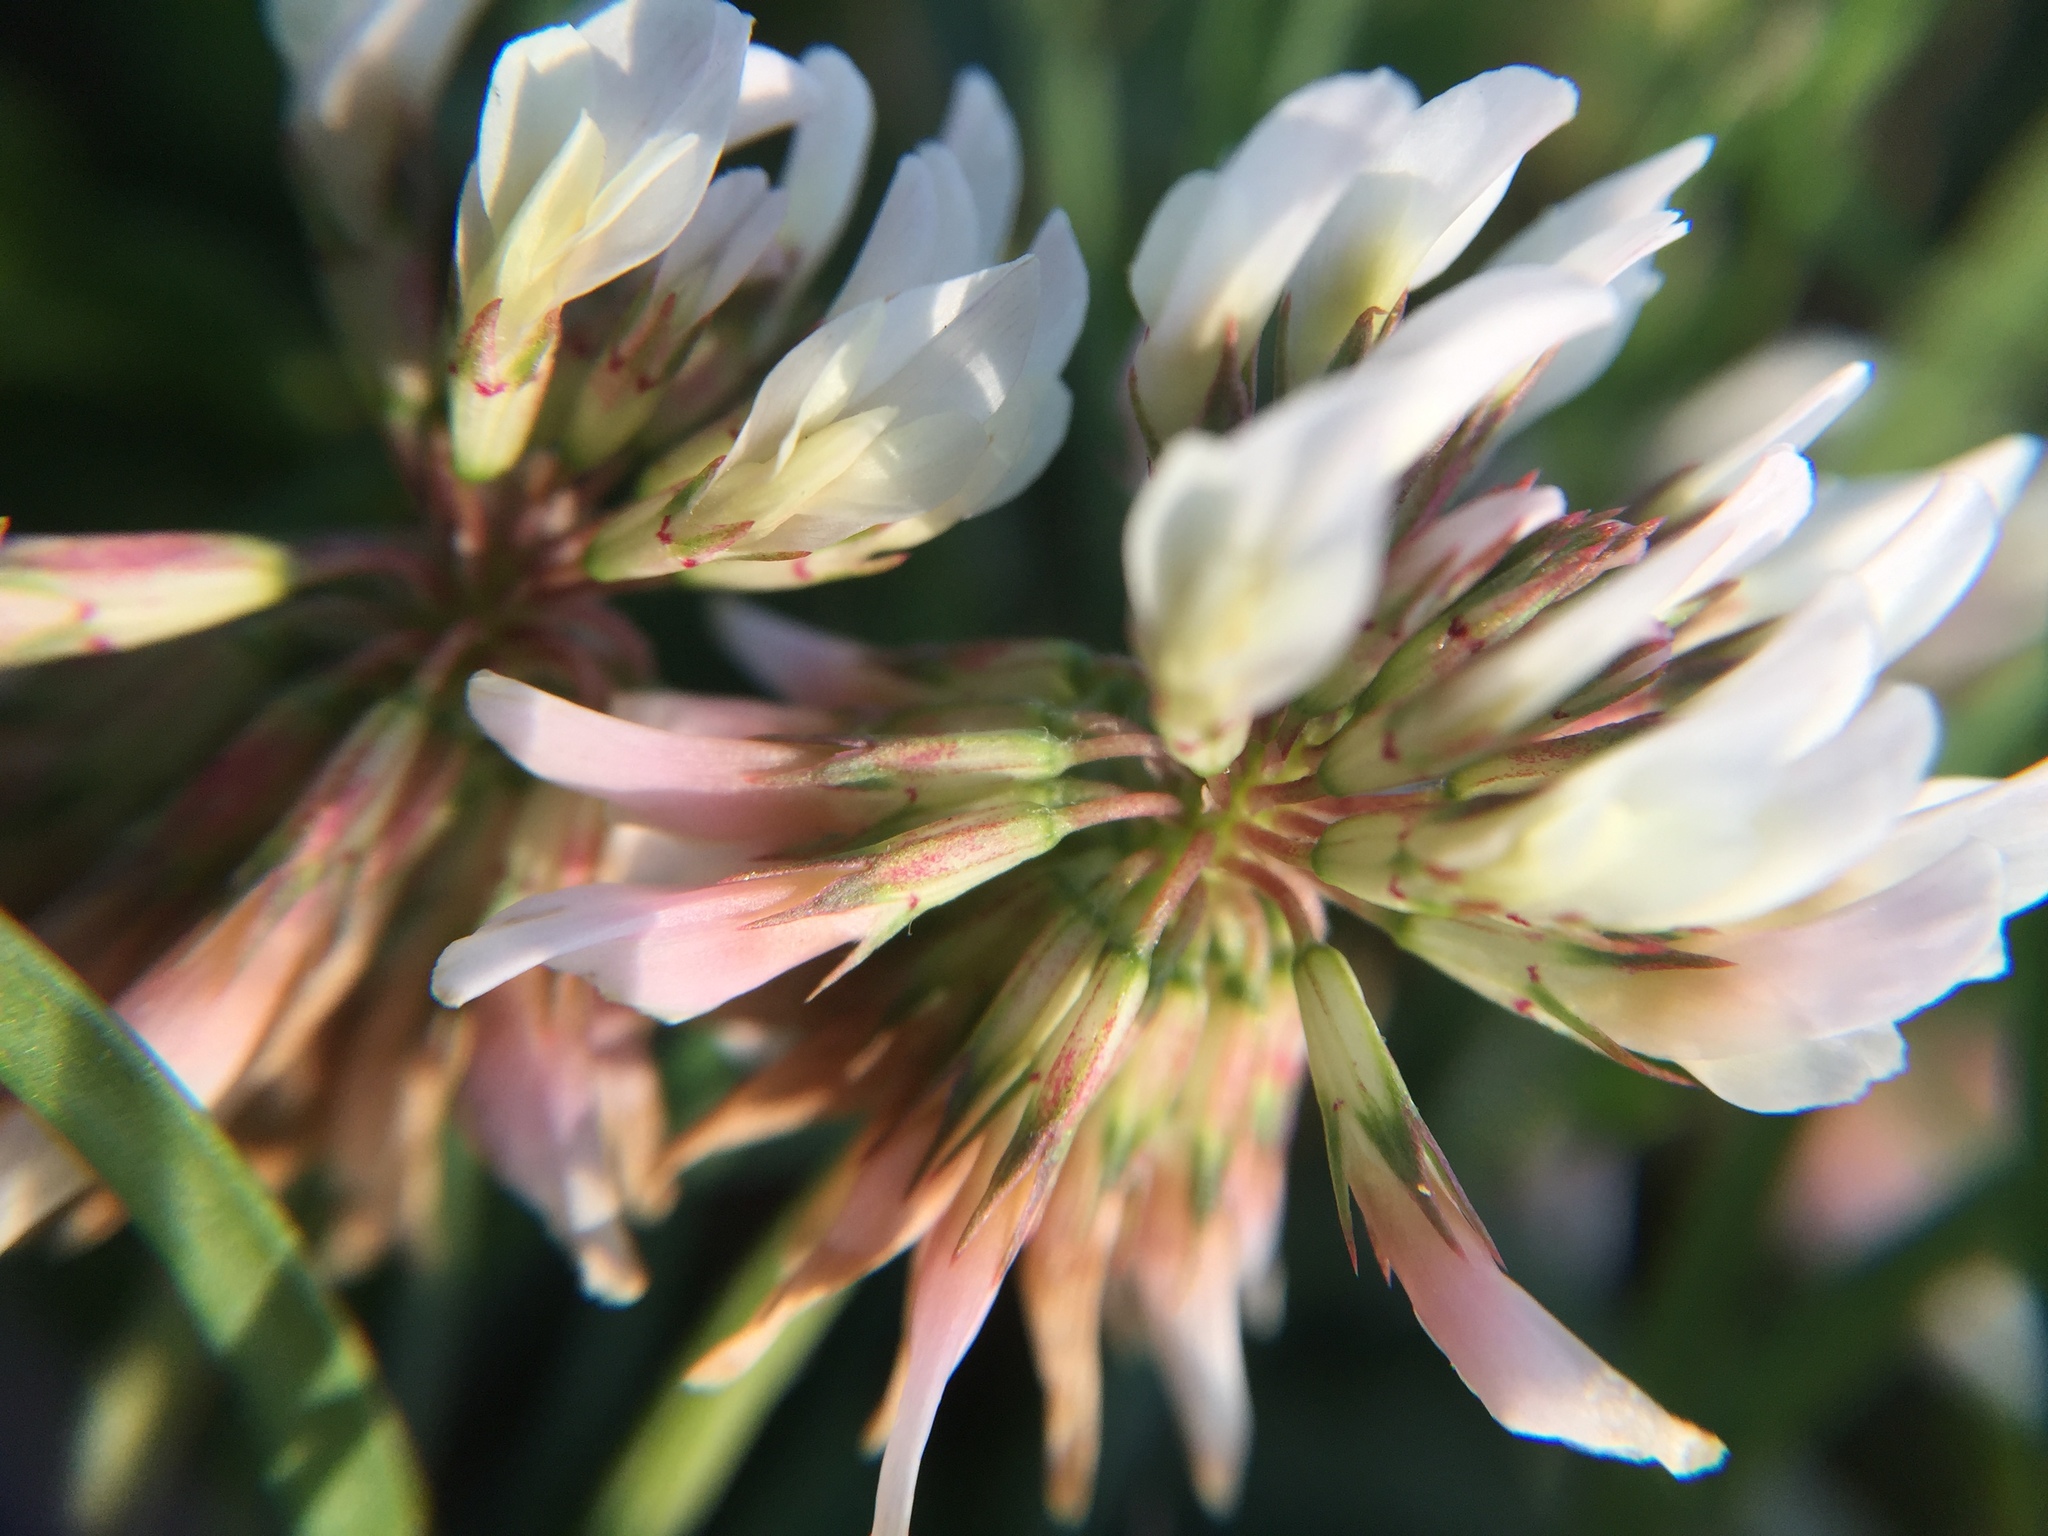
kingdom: Plantae
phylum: Tracheophyta
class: Magnoliopsida
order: Fabales
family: Fabaceae
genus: Trifolium
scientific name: Trifolium repens
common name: White clover
